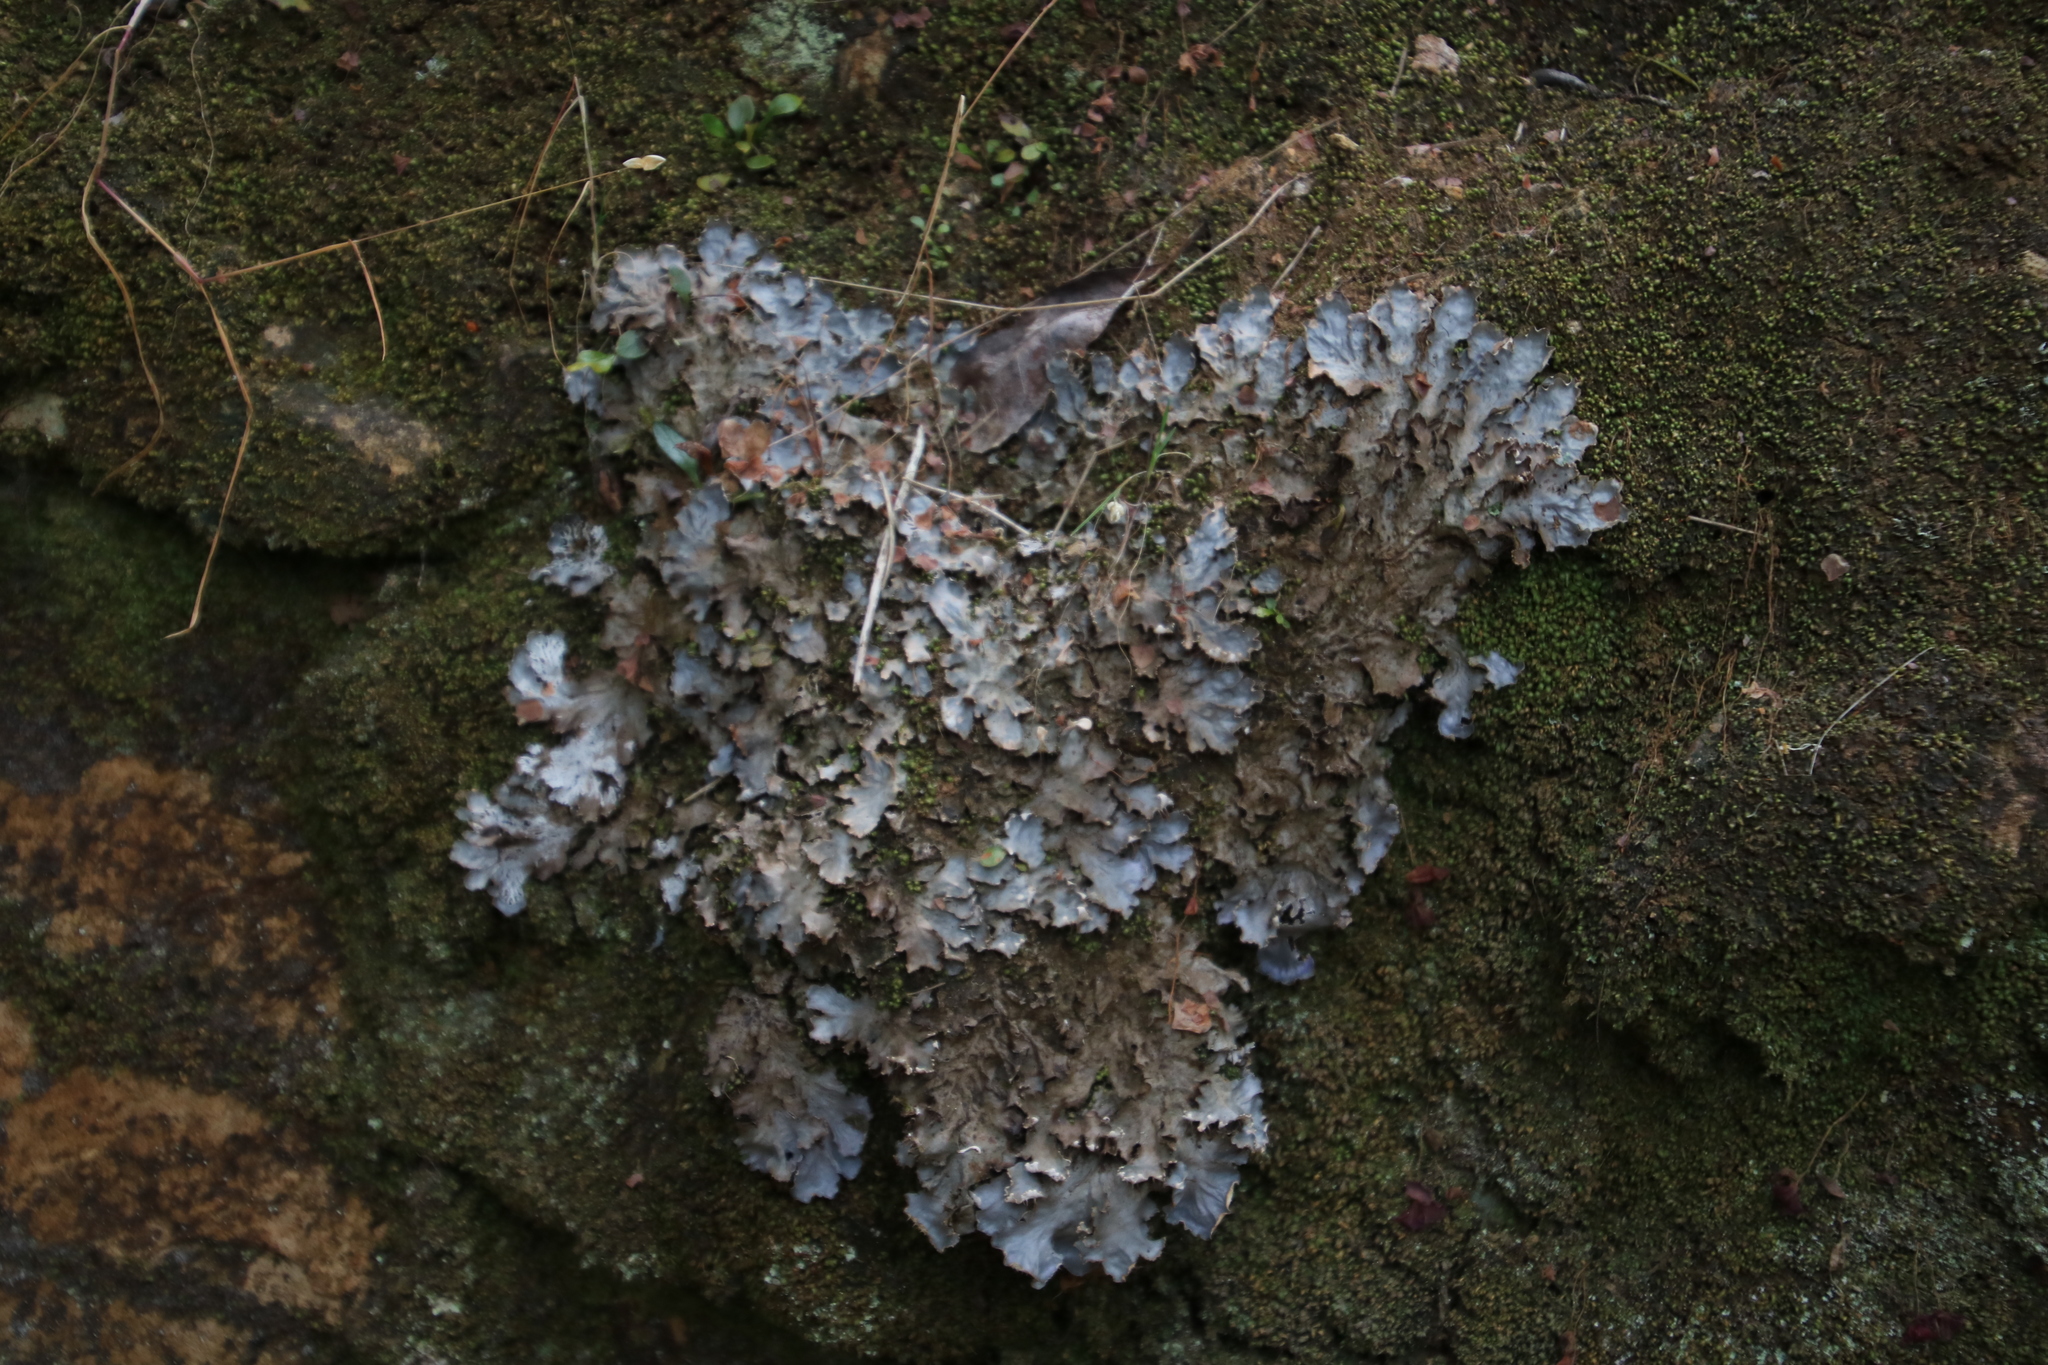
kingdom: Fungi
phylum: Ascomycota
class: Lecanoromycetes
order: Peltigerales
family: Peltigeraceae
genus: Peltigera
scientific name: Peltigera dolichorhiza
